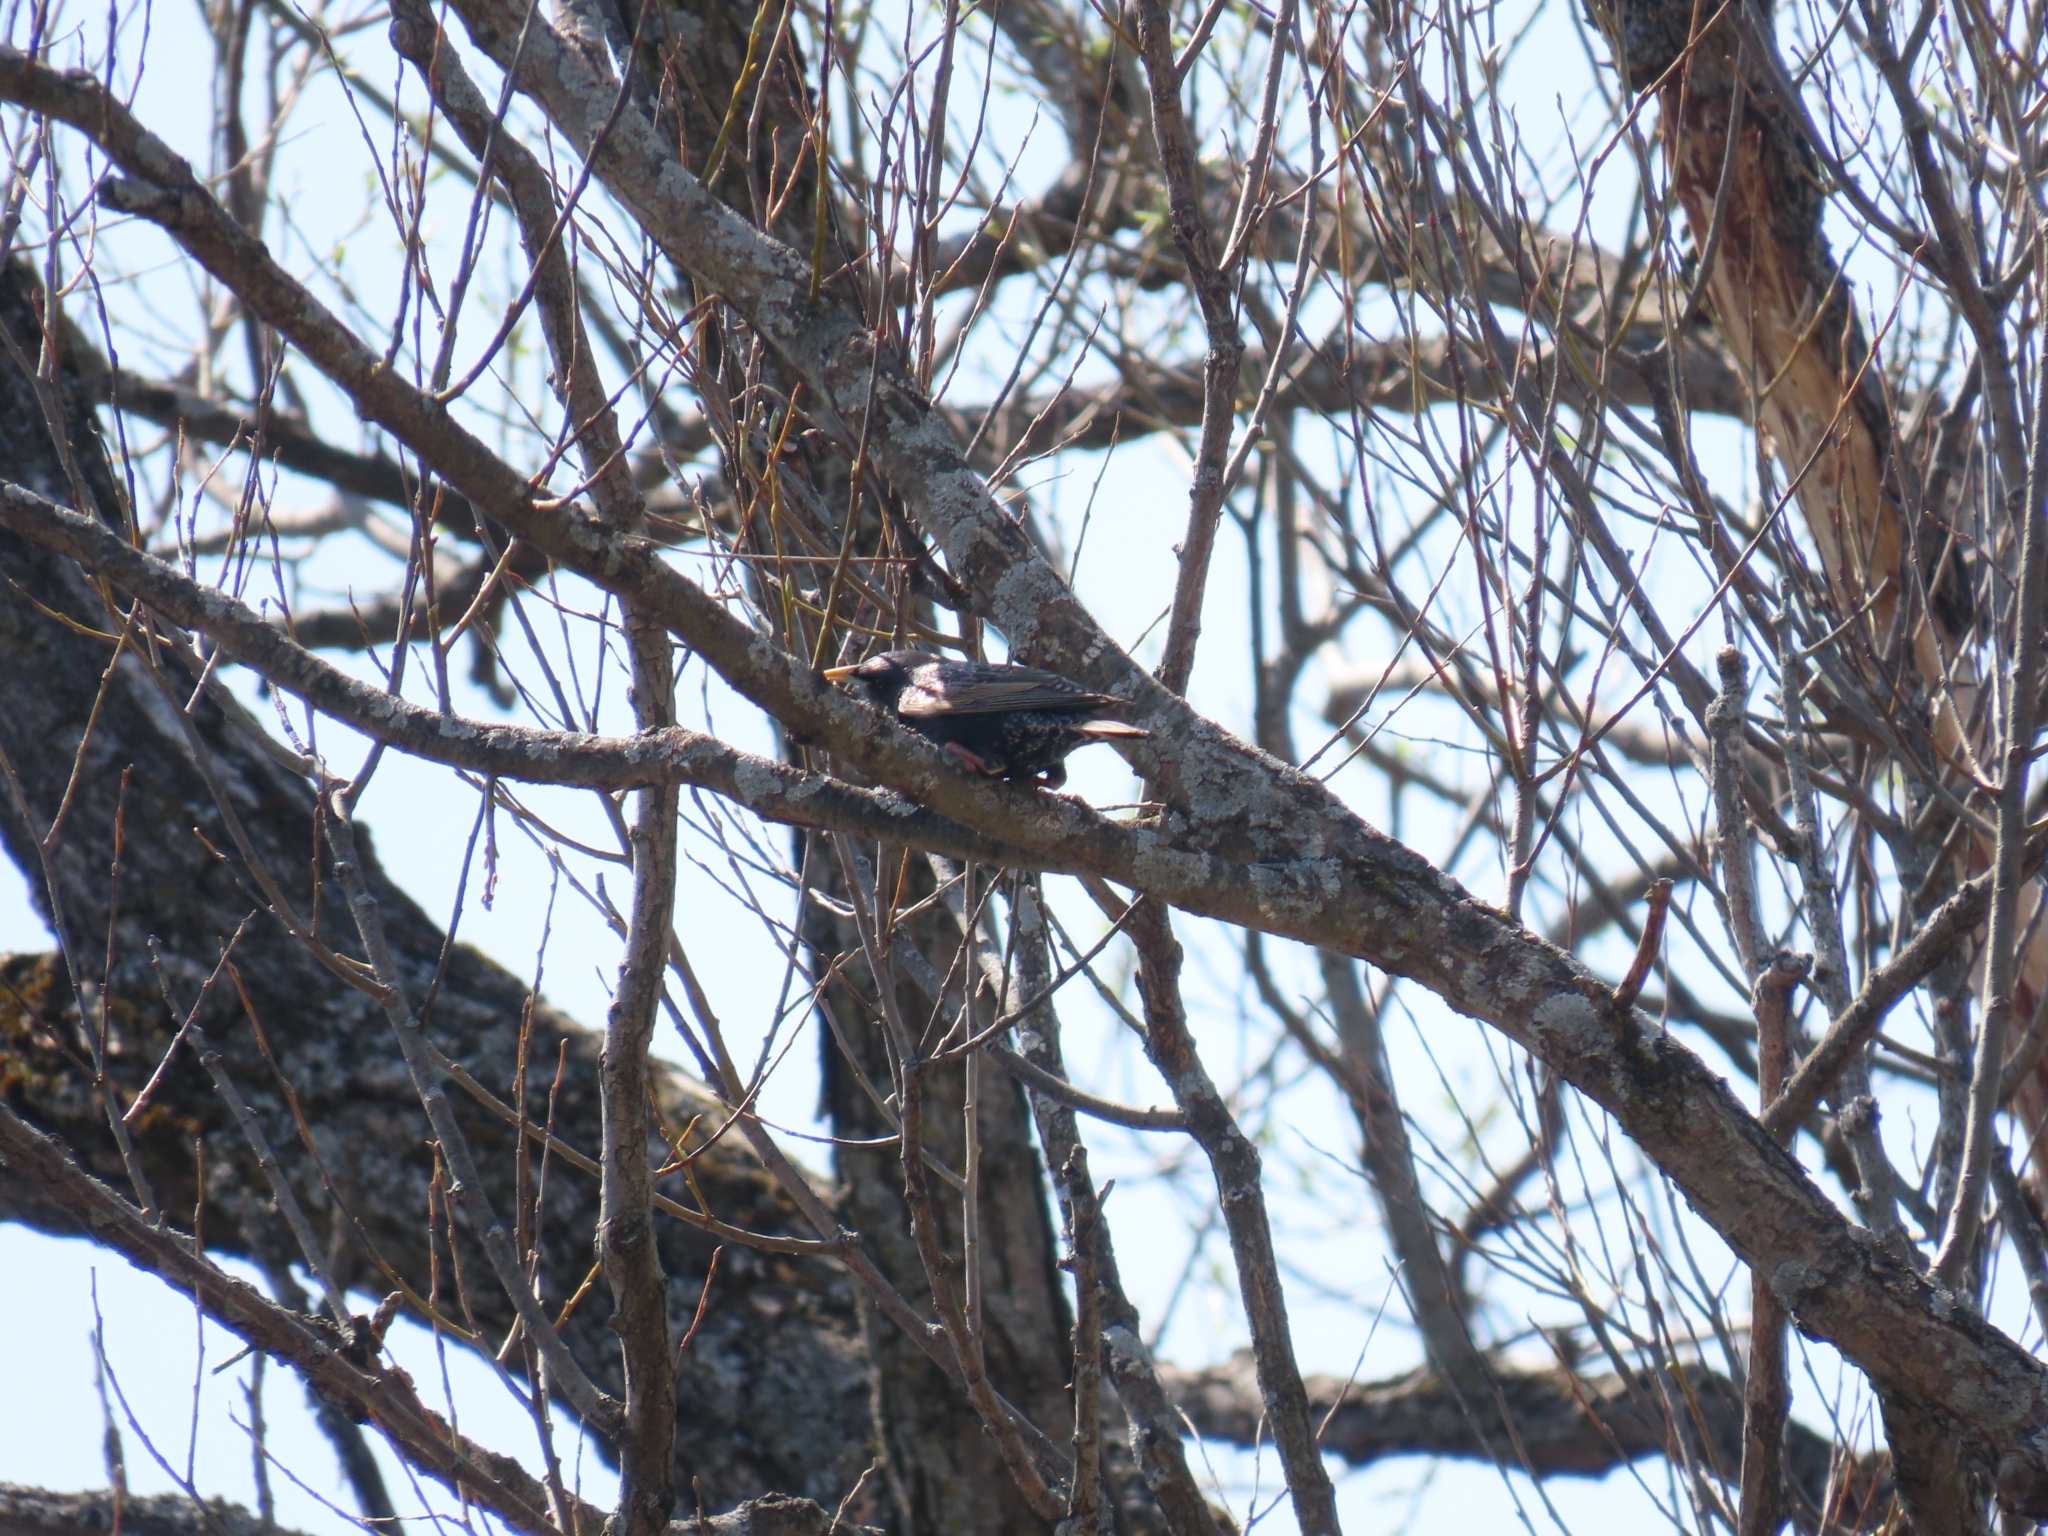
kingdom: Animalia
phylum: Chordata
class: Aves
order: Passeriformes
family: Sturnidae
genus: Sturnus
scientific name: Sturnus vulgaris
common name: Common starling
